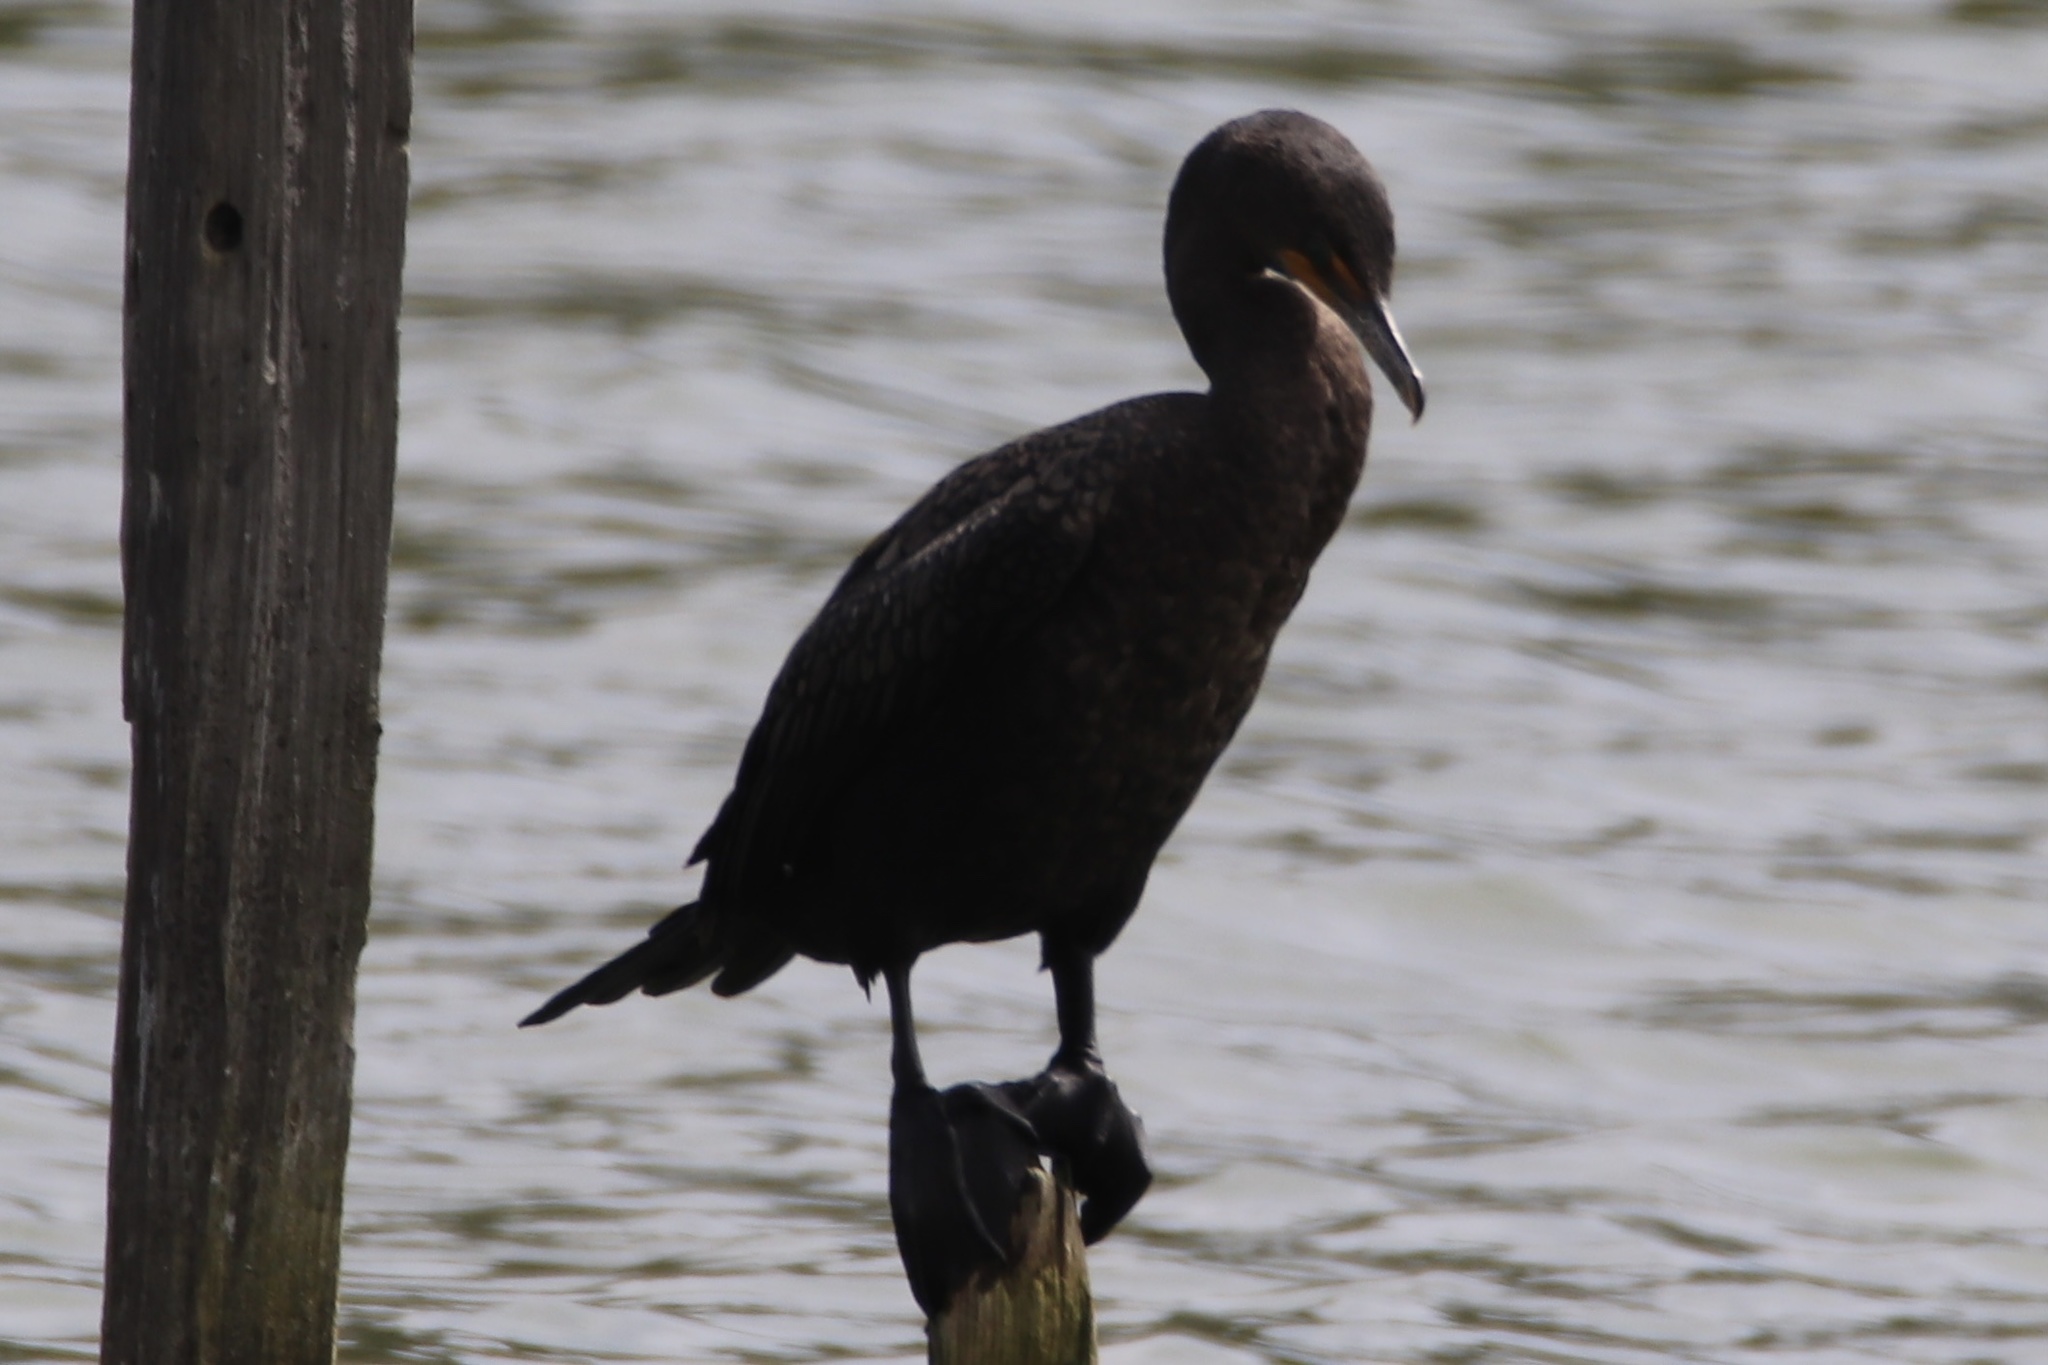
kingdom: Animalia
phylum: Chordata
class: Aves
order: Suliformes
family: Phalacrocoracidae
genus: Phalacrocorax
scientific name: Phalacrocorax auritus
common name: Double-crested cormorant
